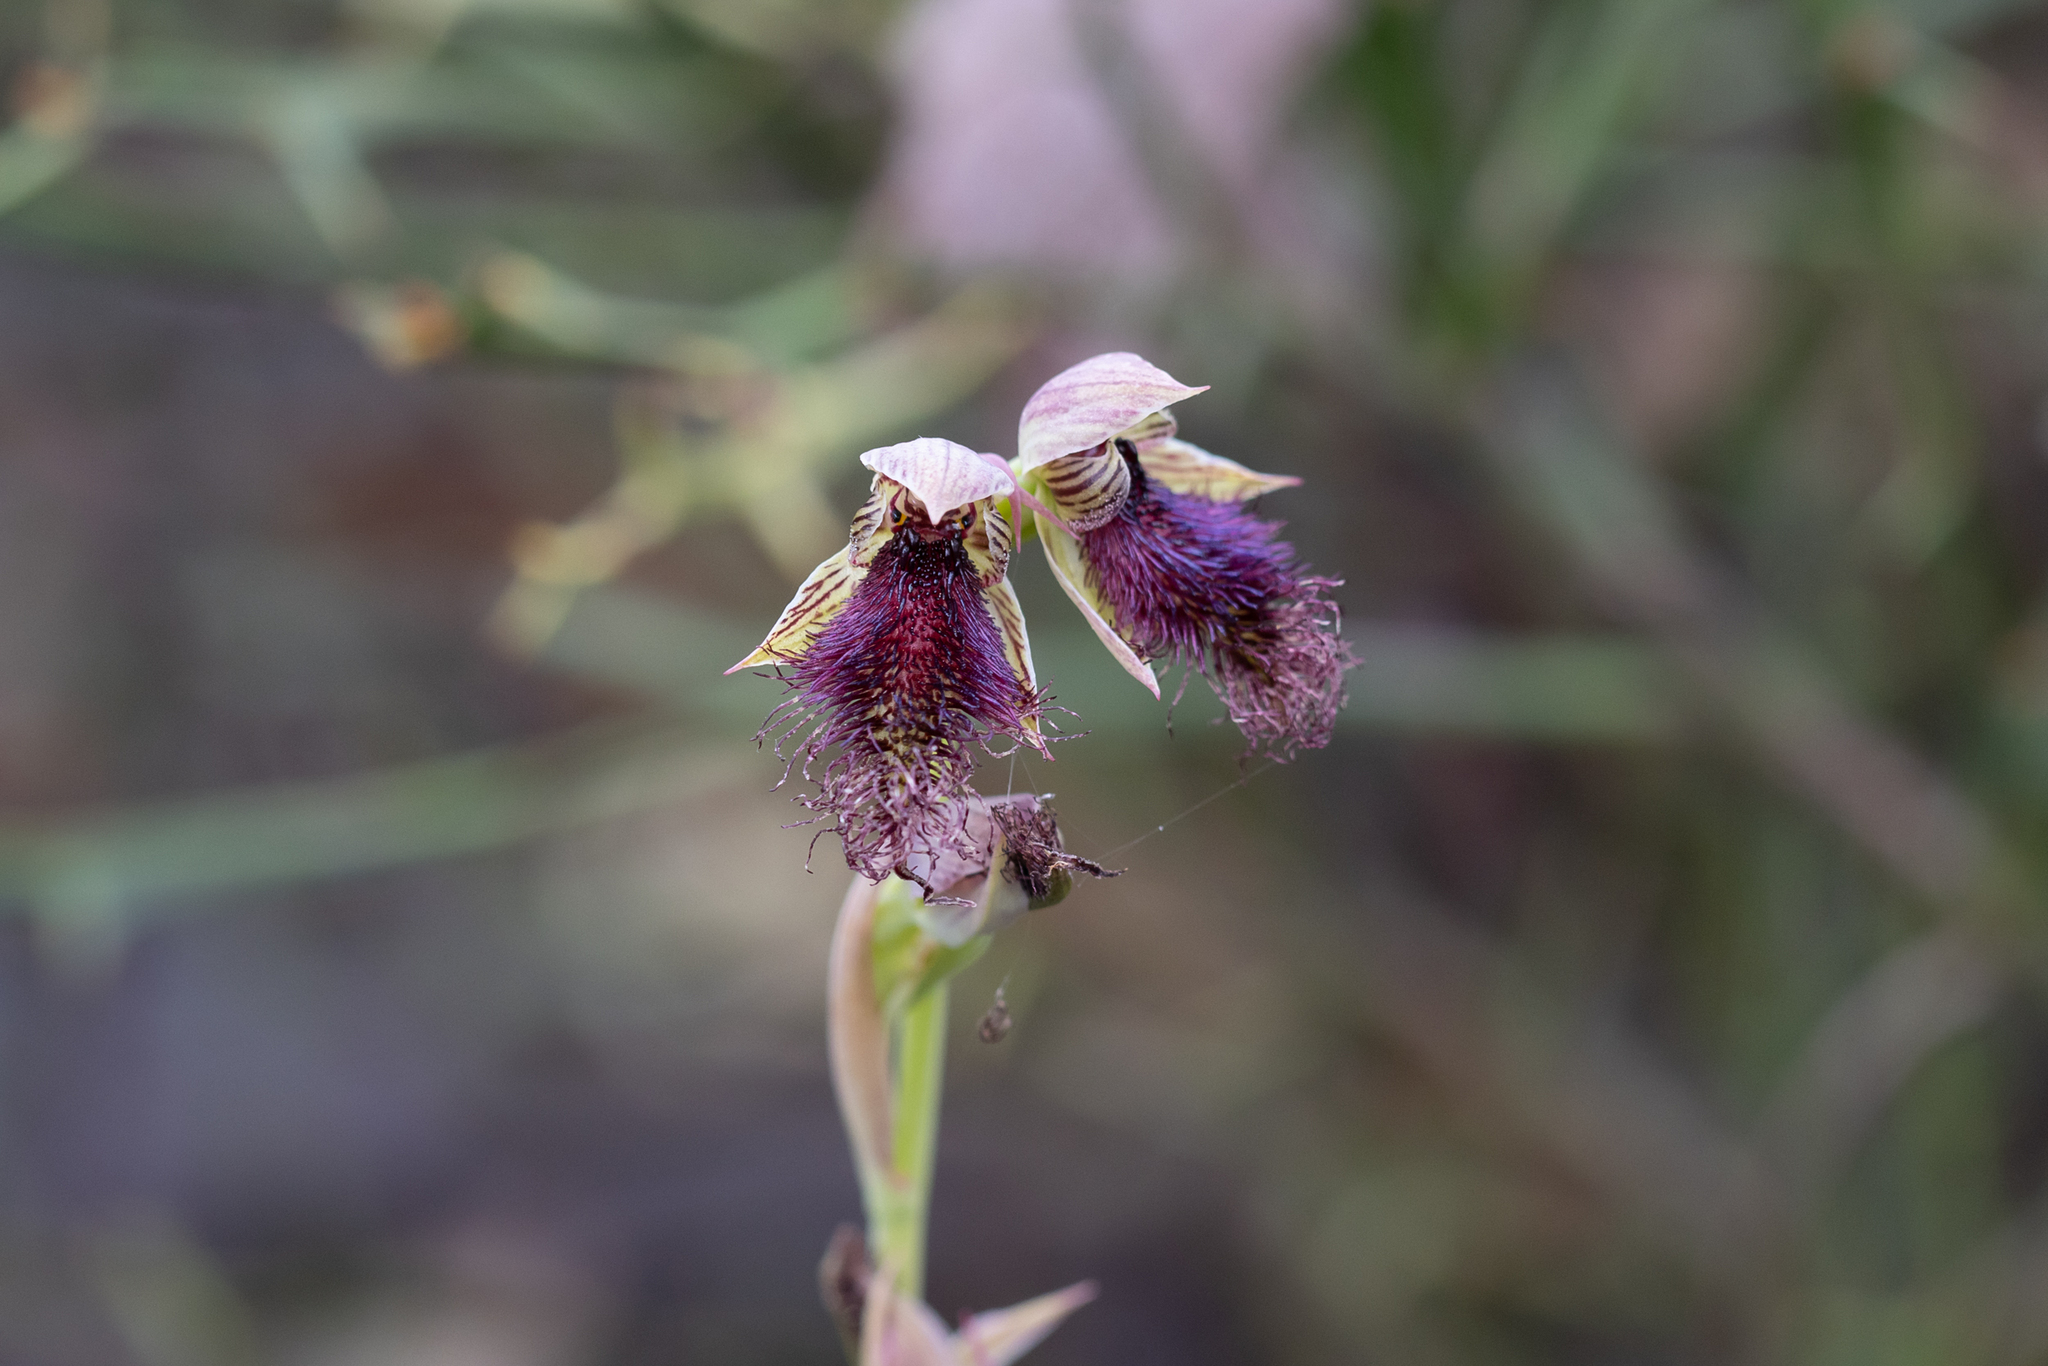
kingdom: Plantae
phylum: Tracheophyta
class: Liliopsida
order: Asparagales
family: Orchidaceae
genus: Calochilus
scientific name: Calochilus stramenicola
